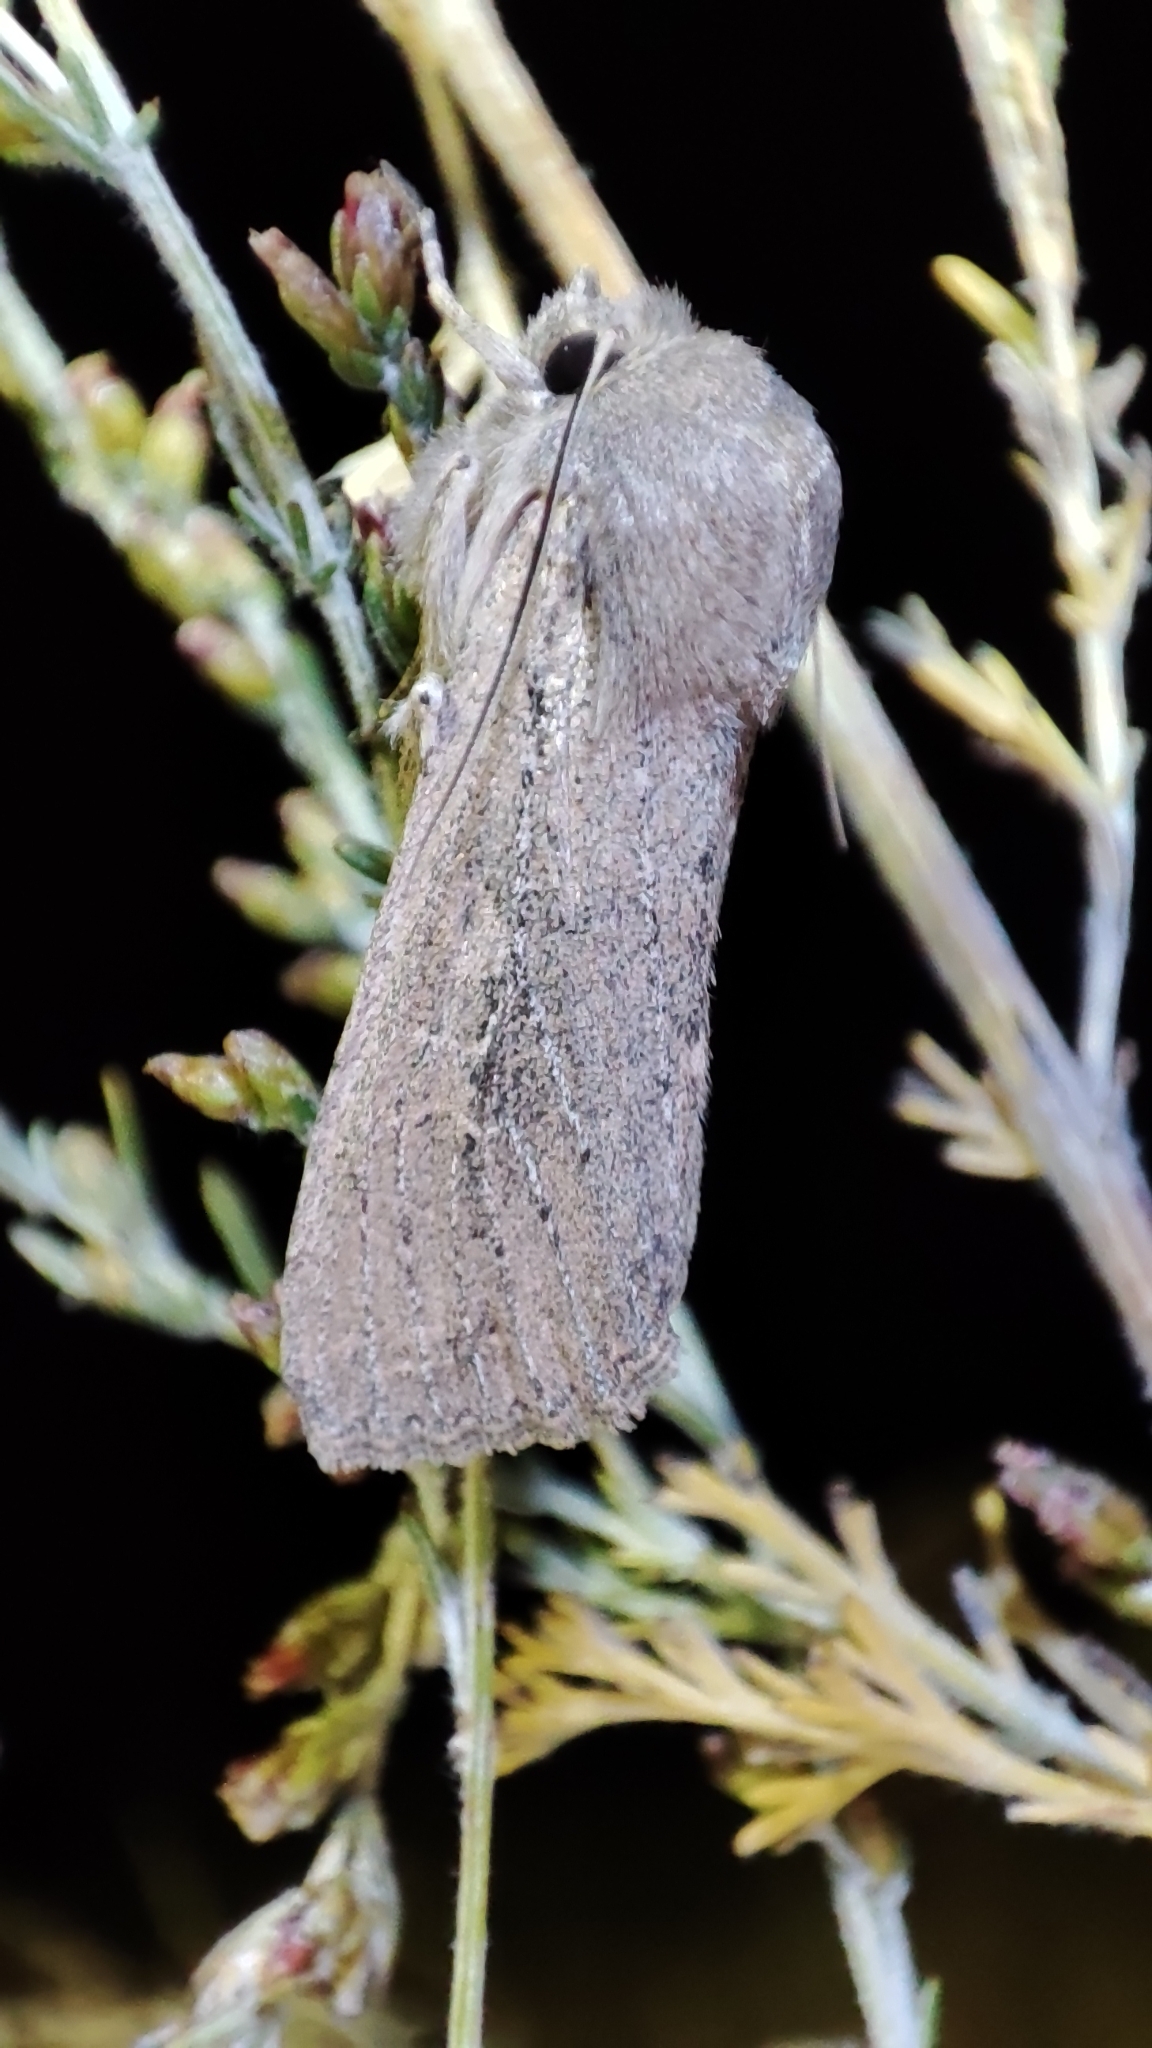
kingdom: Animalia
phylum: Arthropoda
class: Insecta
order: Lepidoptera
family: Noctuidae
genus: Fabula
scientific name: Fabula zollikoferi
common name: Scarce arches
